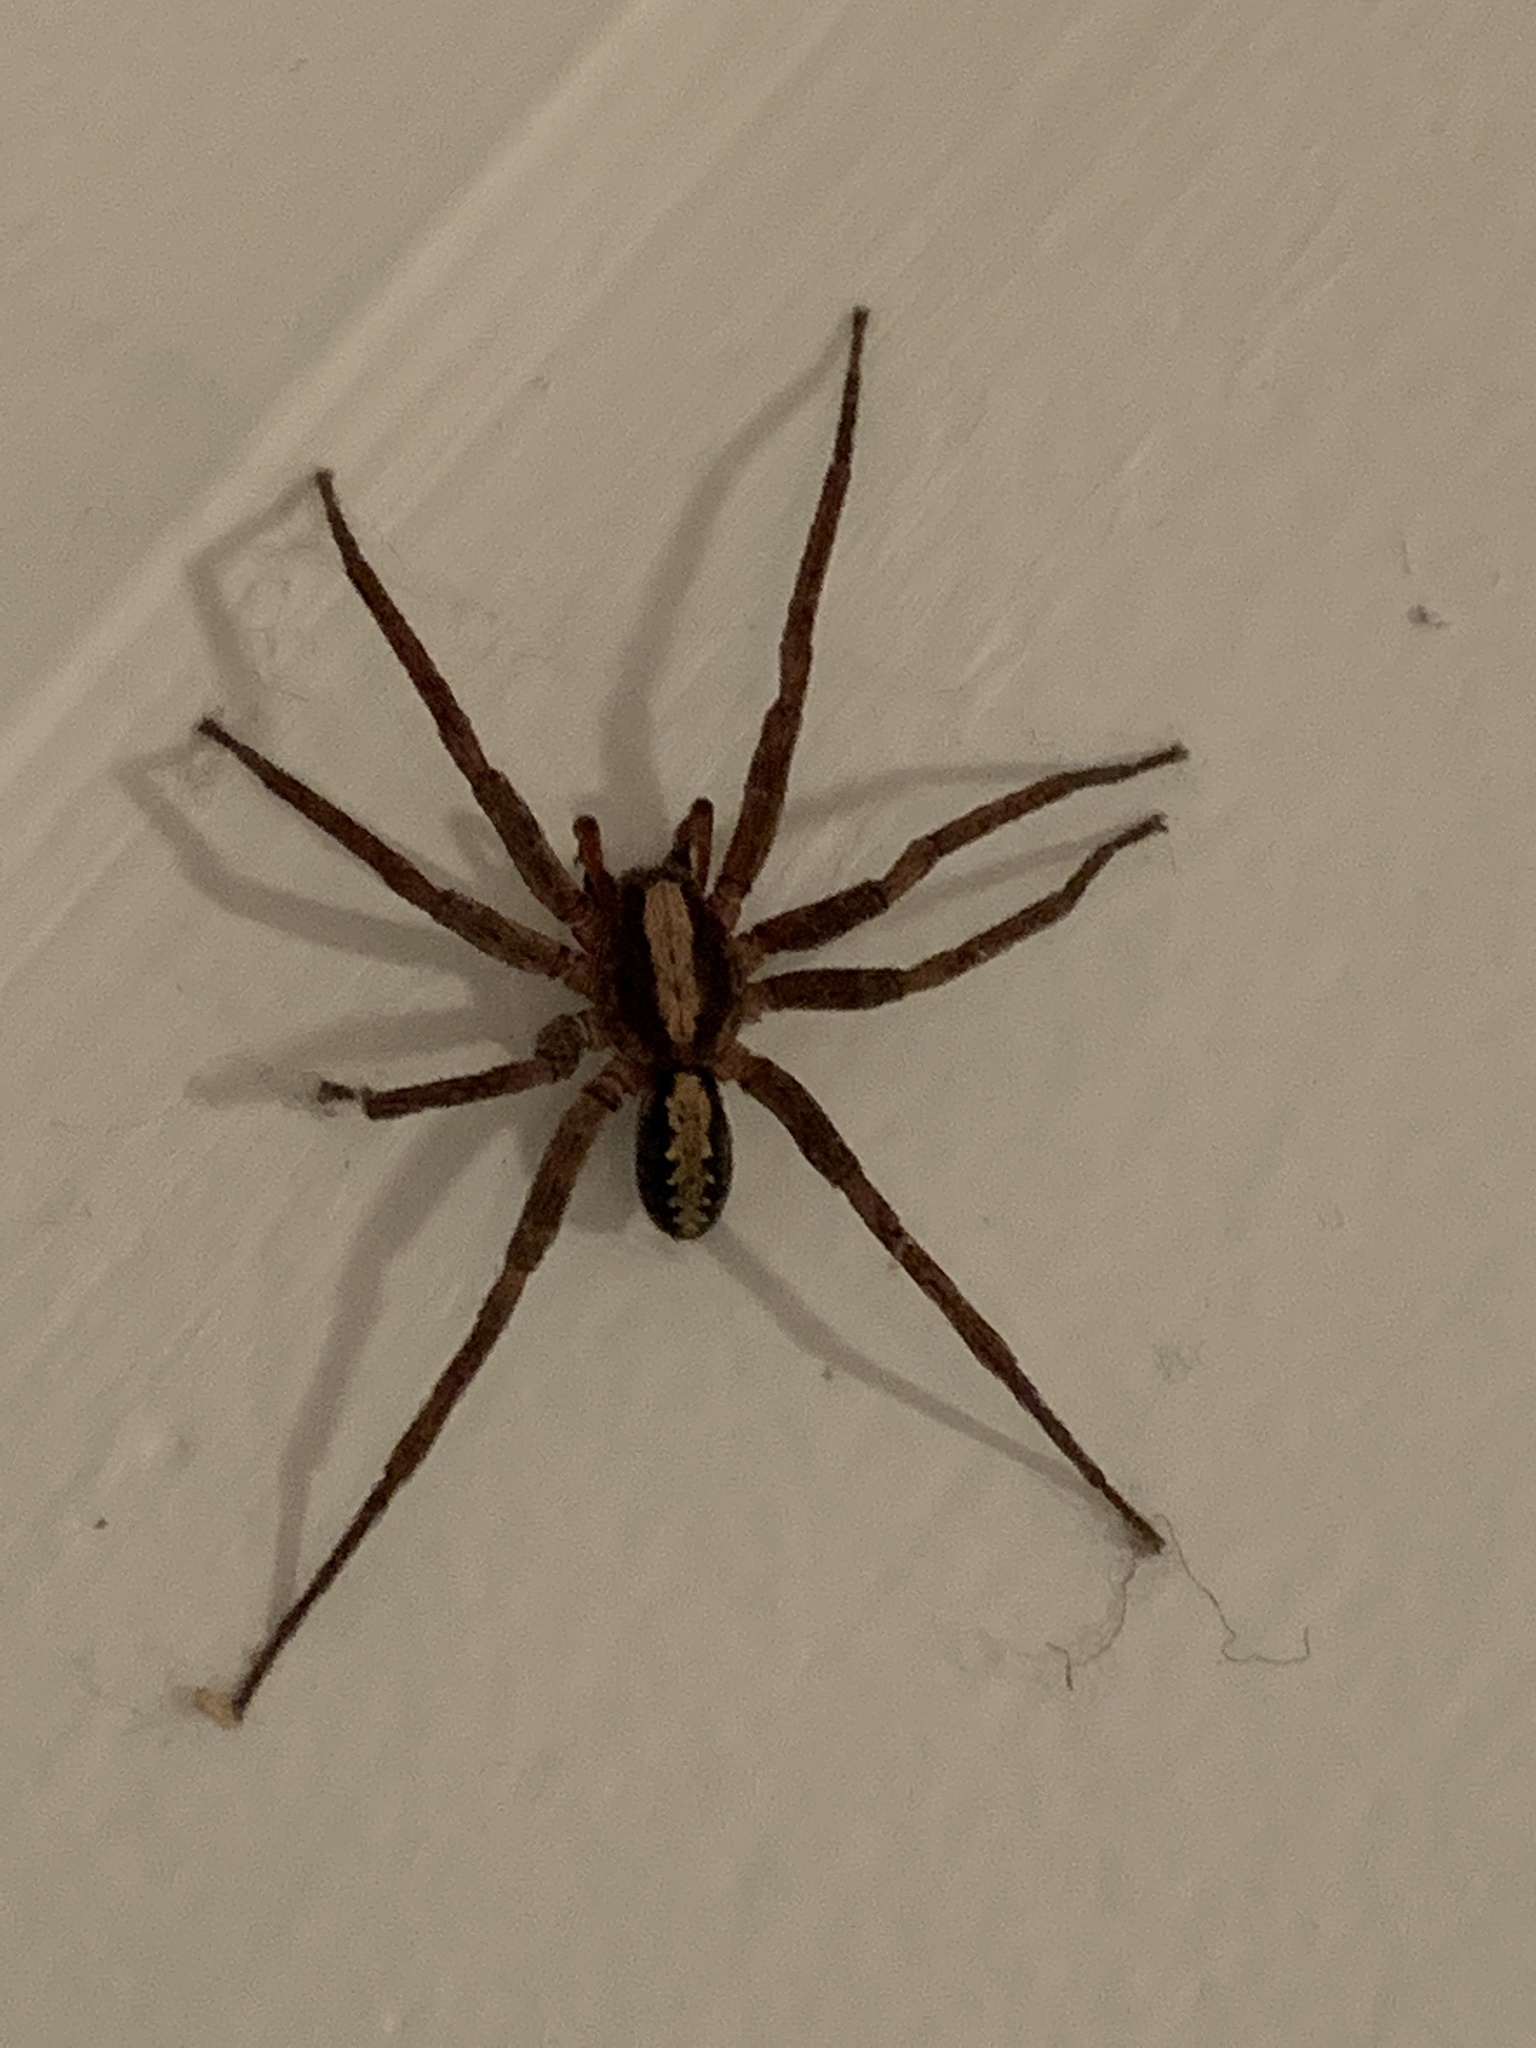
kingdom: Animalia
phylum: Arthropoda
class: Arachnida
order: Araneae
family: Ctenidae
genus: Ctenus
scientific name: Ctenus hibernalis
